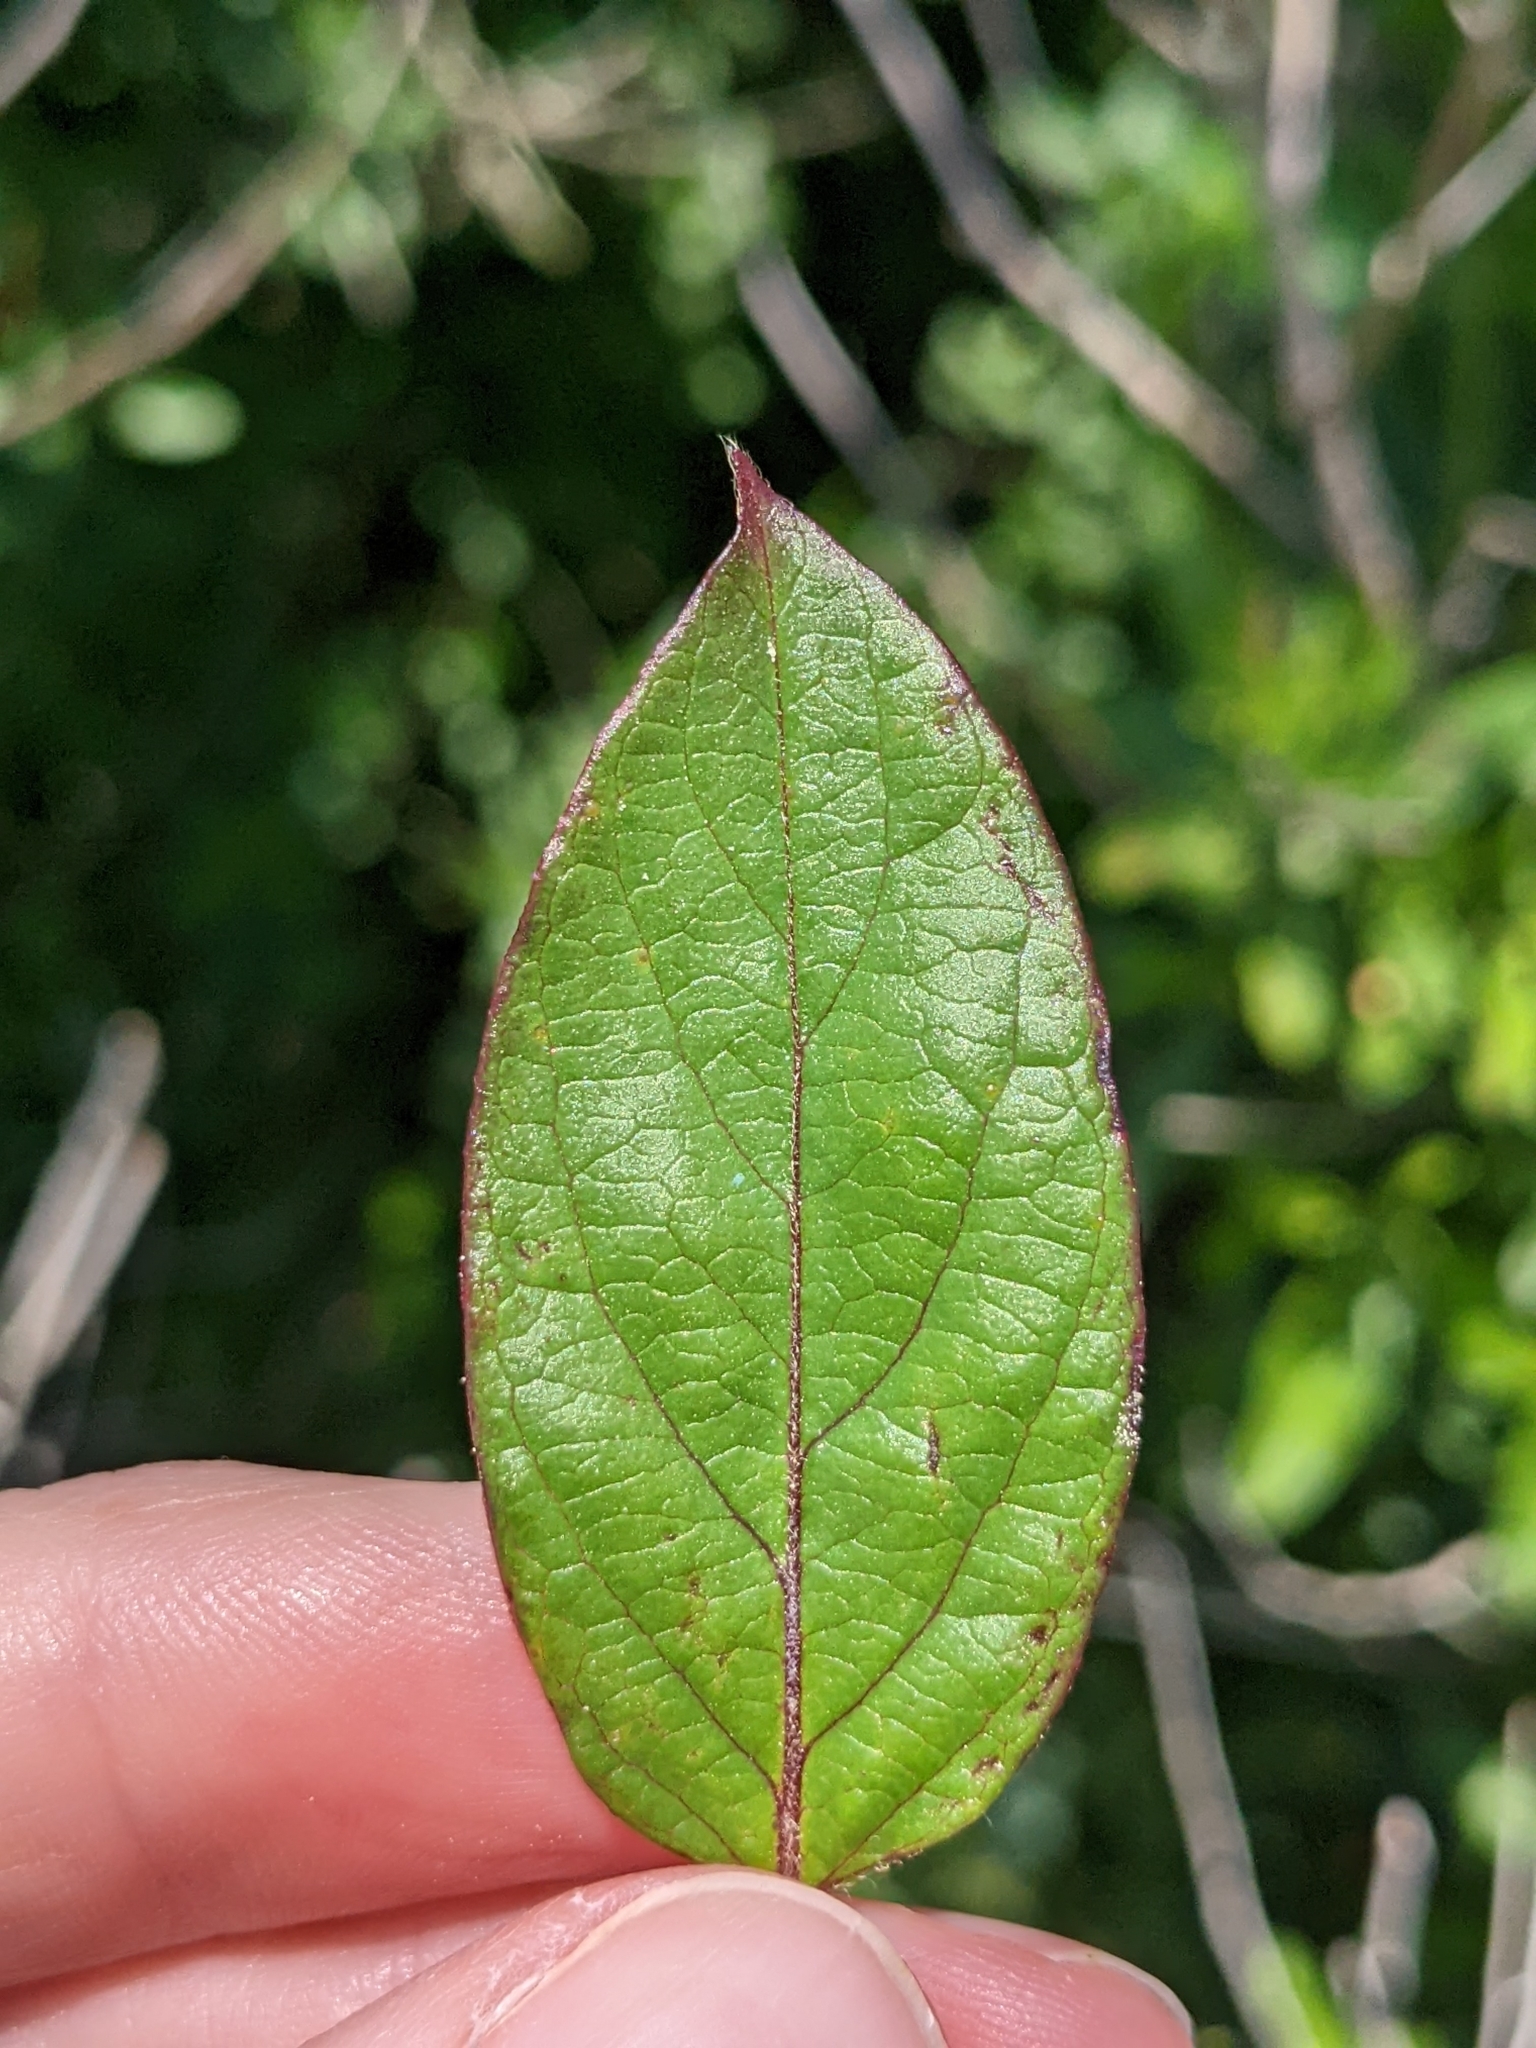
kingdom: Plantae
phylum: Tracheophyta
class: Magnoliopsida
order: Dipsacales
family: Caprifoliaceae
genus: Lonicera
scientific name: Lonicera japonica
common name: Japanese honeysuckle
